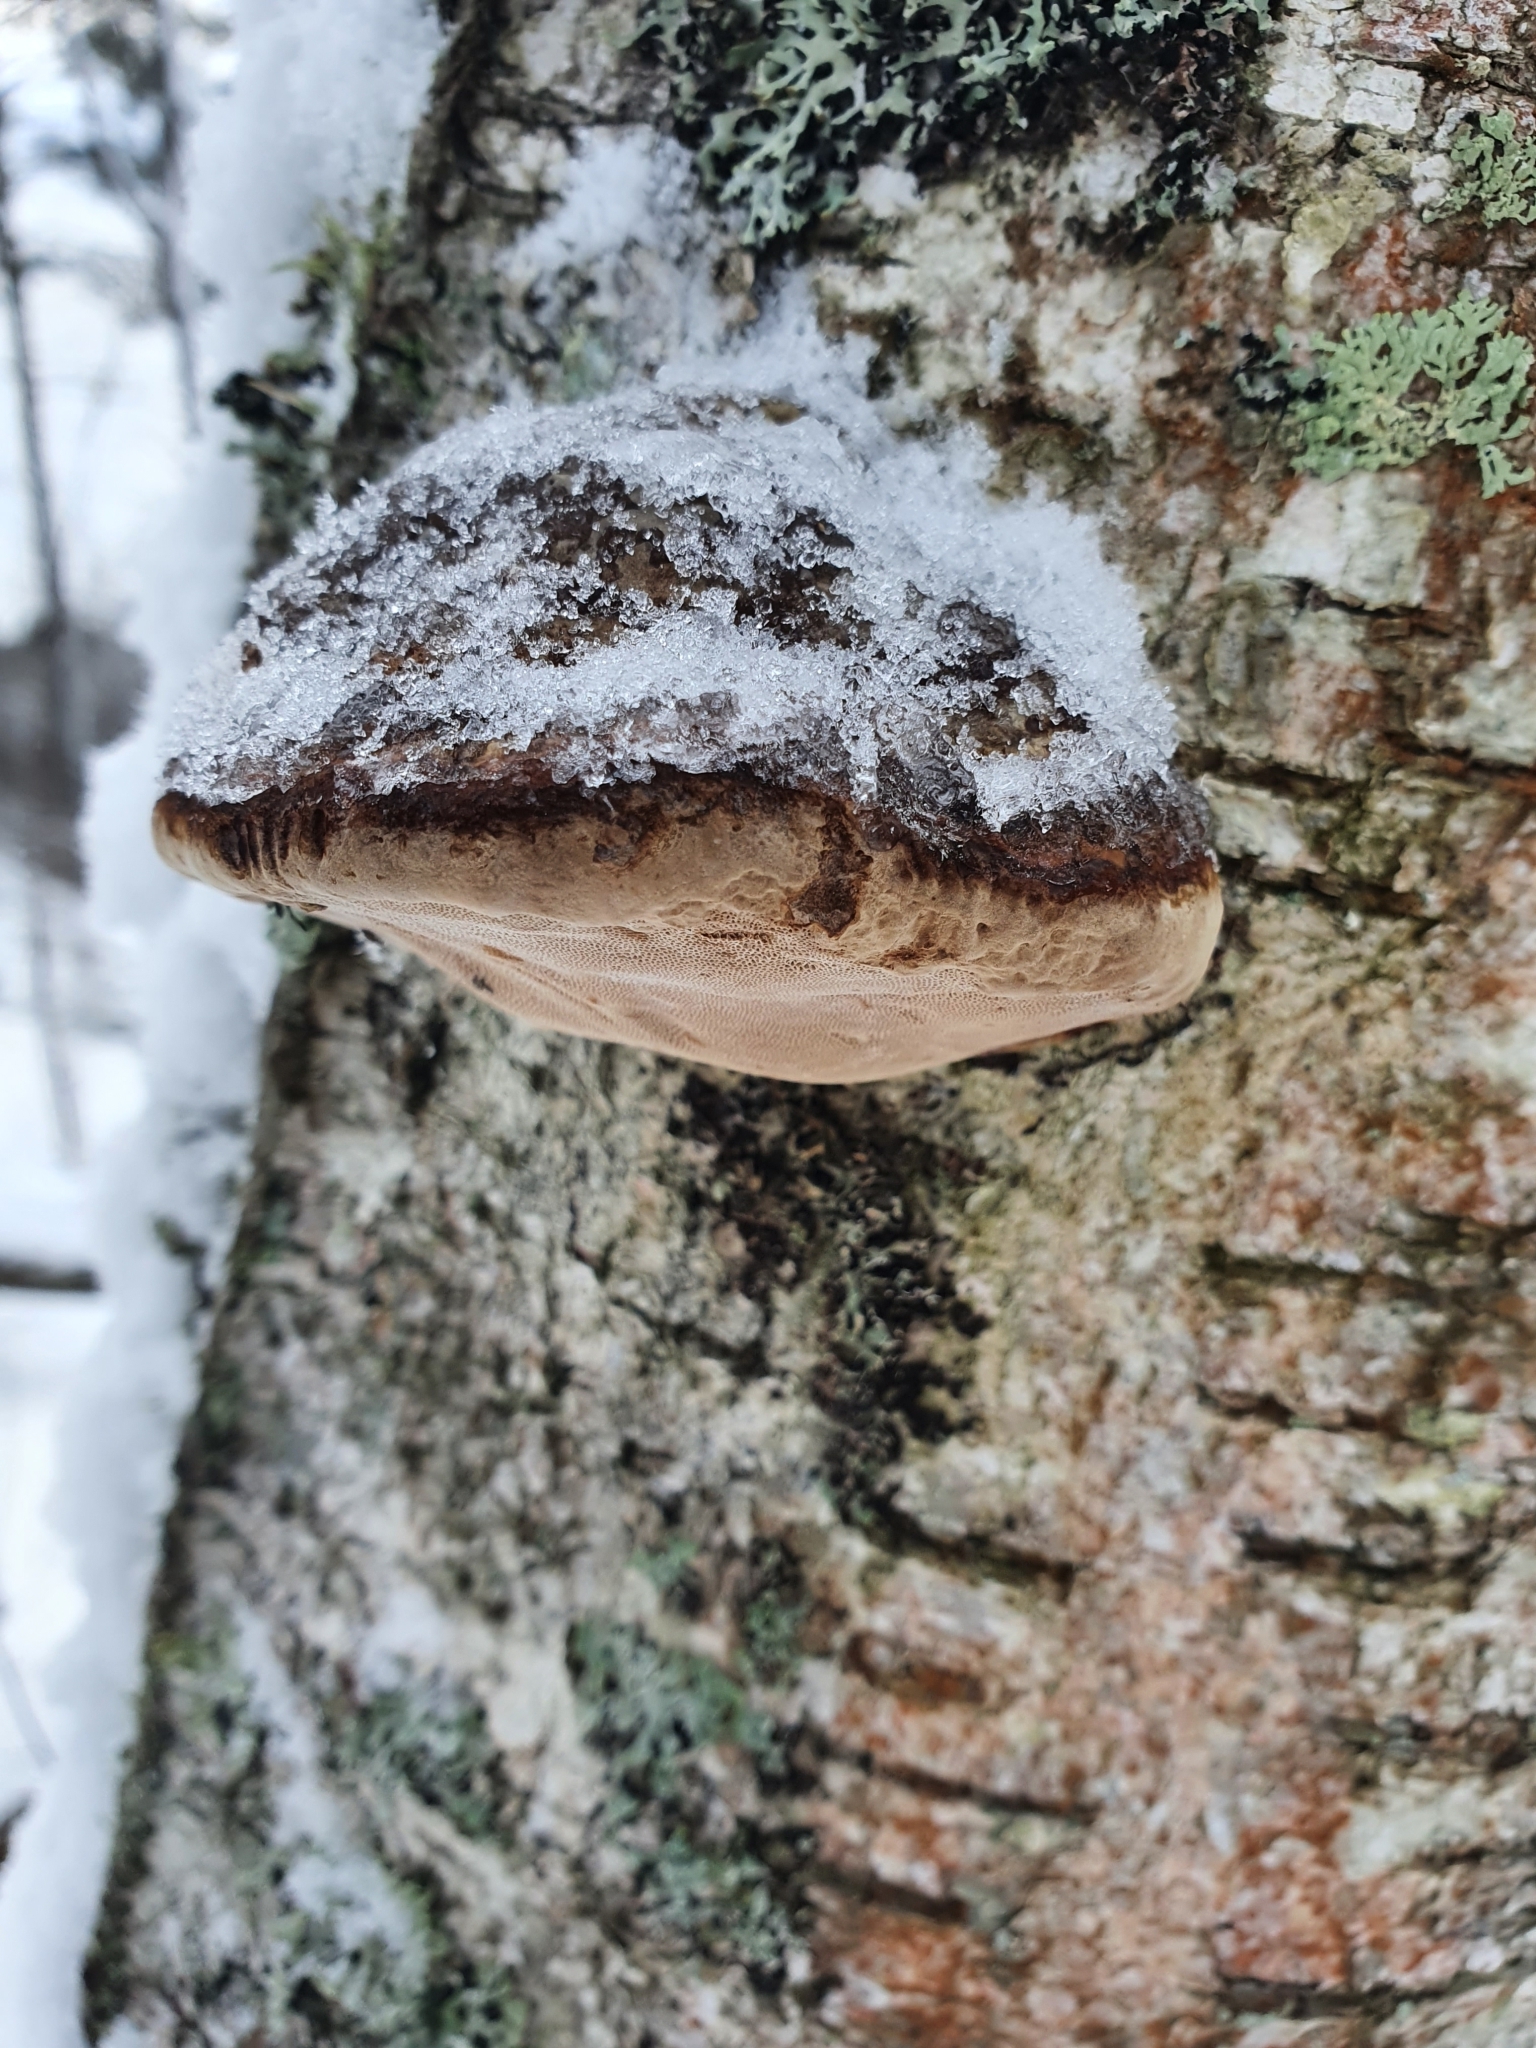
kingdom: Fungi
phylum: Basidiomycota
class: Agaricomycetes
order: Polyporales
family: Fomitopsidaceae
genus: Fomitopsis
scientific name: Fomitopsis betulina
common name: Birch polypore
